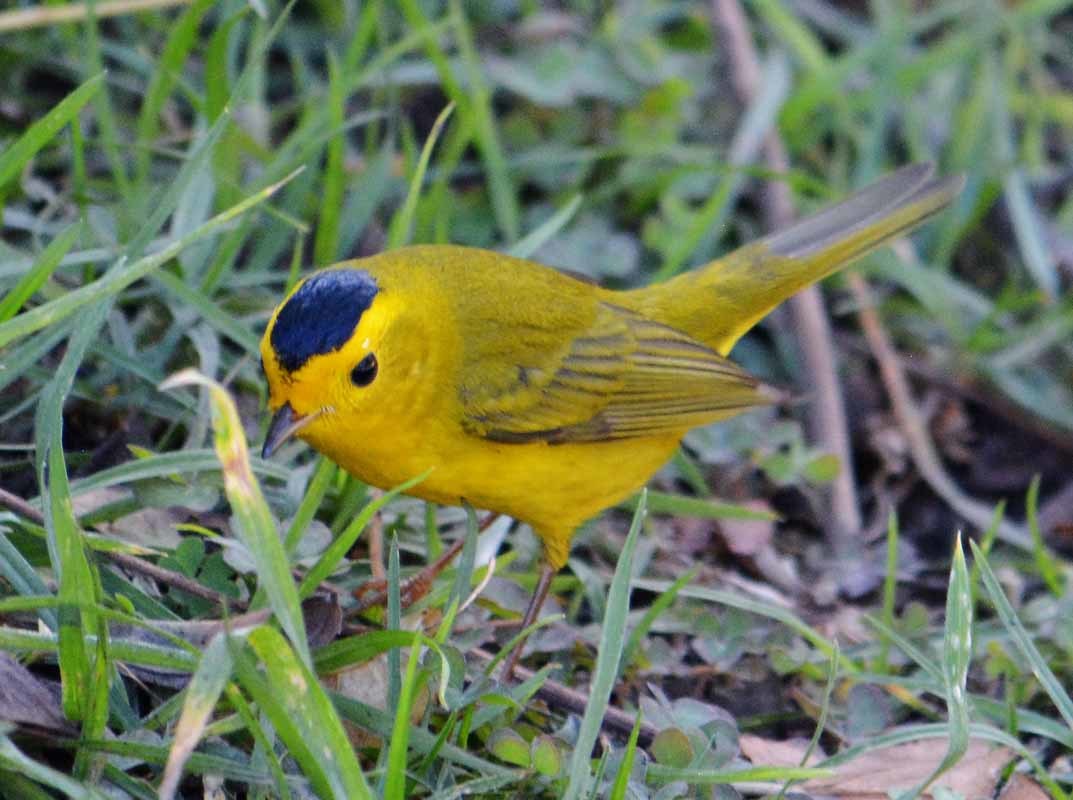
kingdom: Animalia
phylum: Chordata
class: Aves
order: Passeriformes
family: Parulidae
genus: Cardellina
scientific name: Cardellina pusilla
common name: Wilson's warbler
